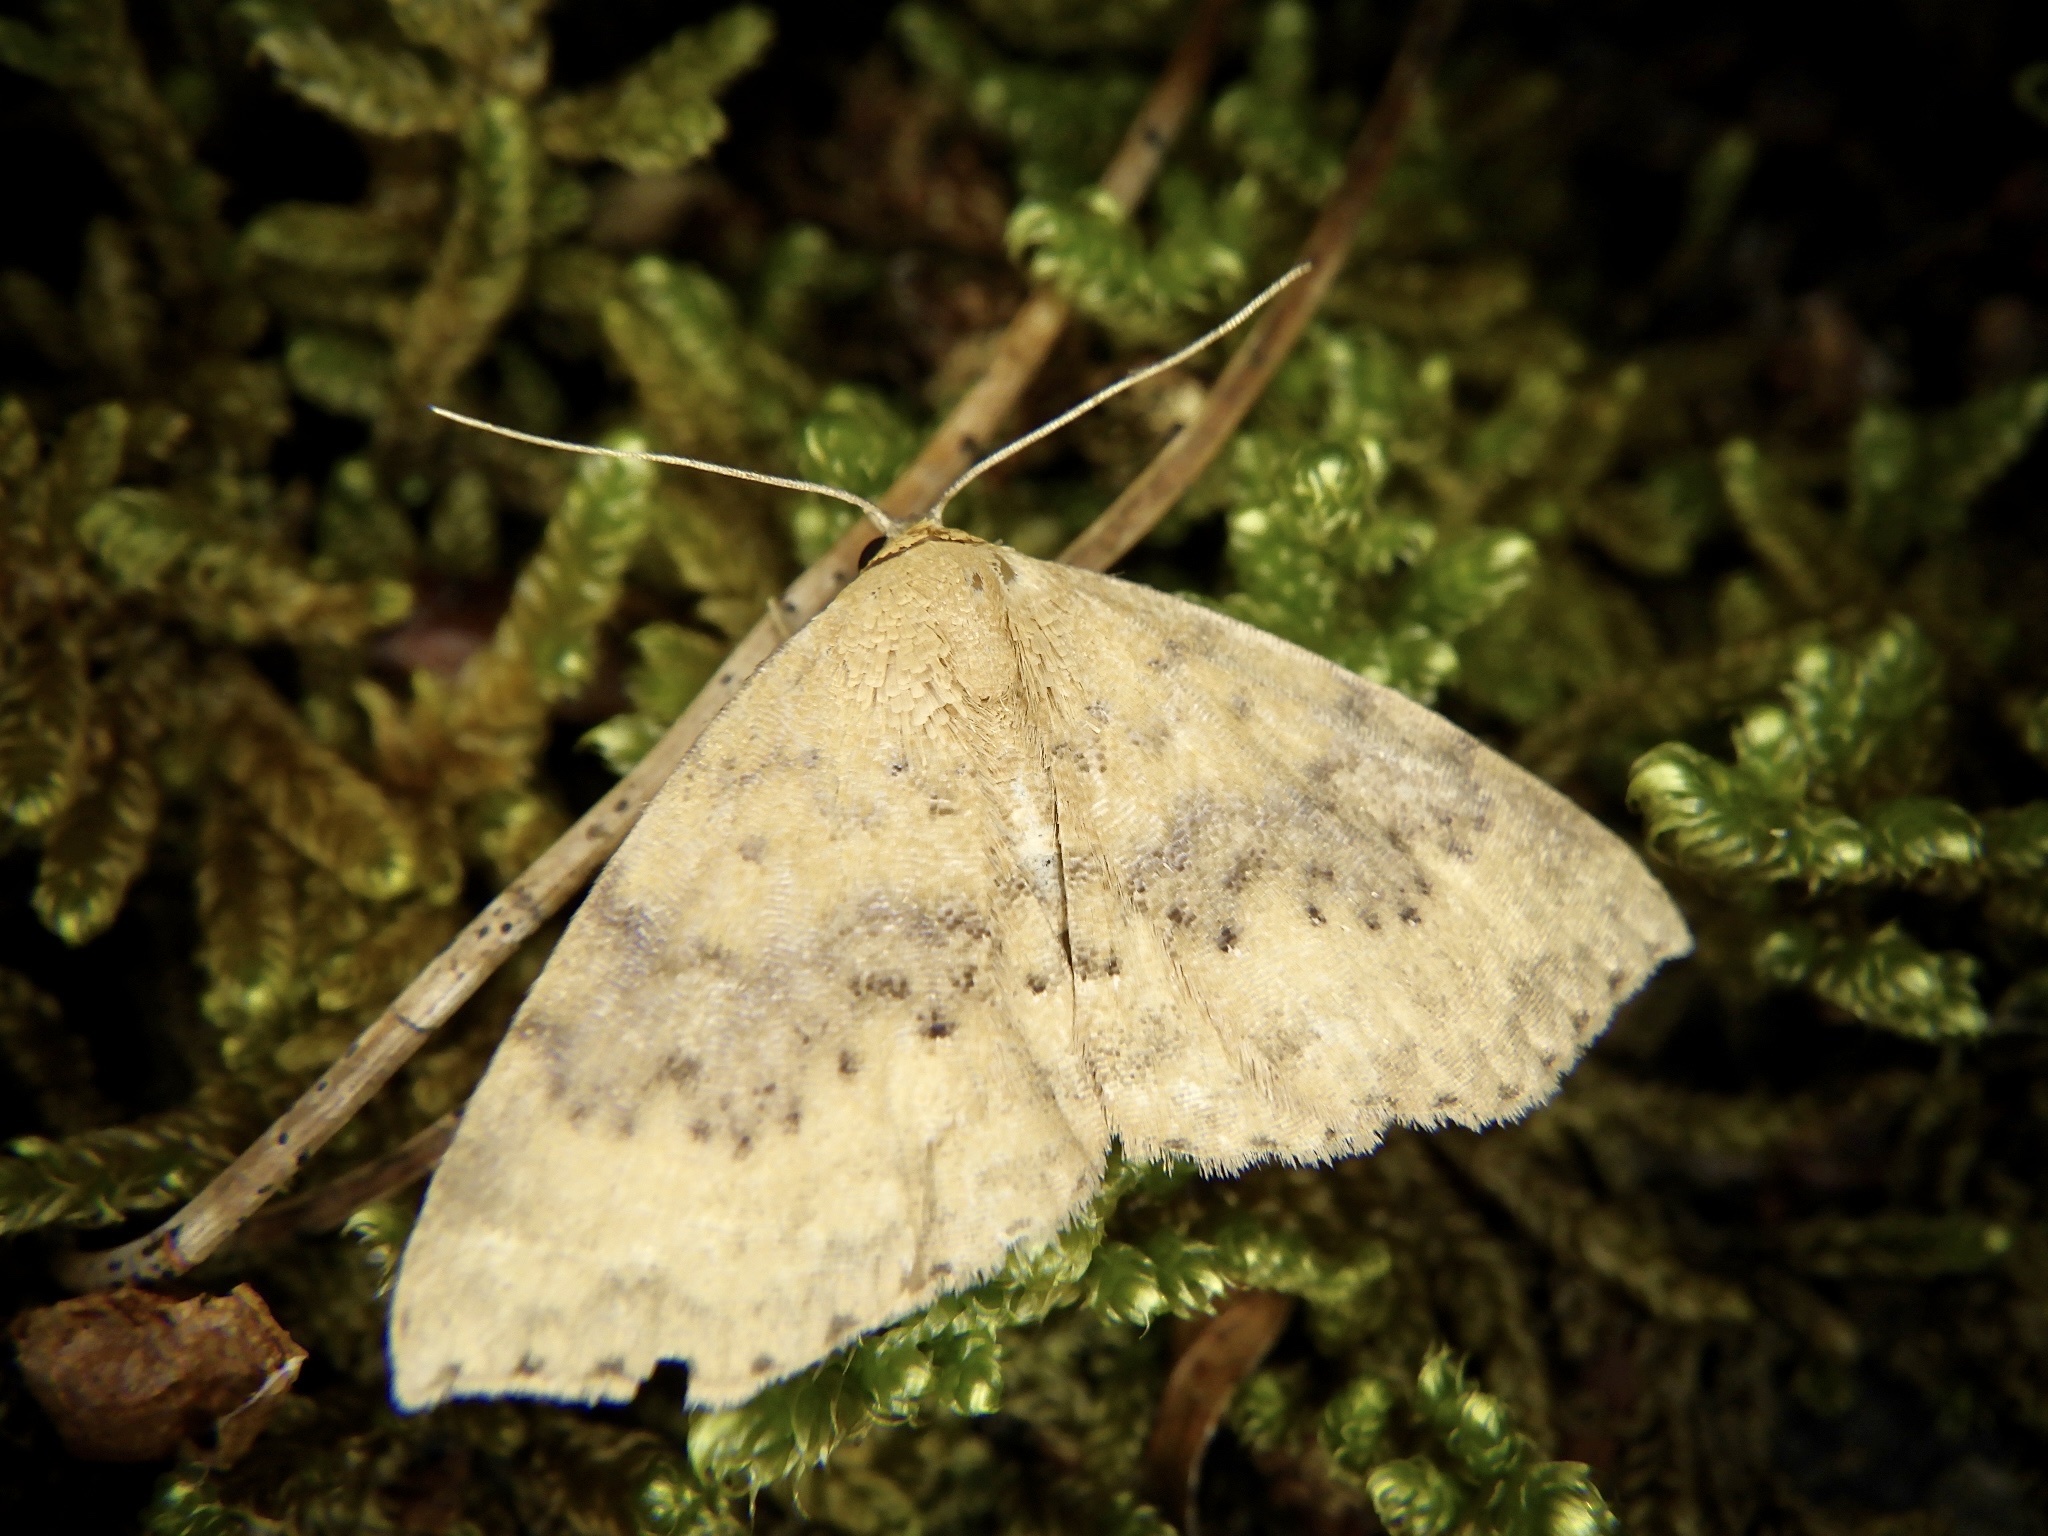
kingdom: Animalia
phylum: Arthropoda
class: Insecta
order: Lepidoptera
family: Noctuidae
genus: Oruza
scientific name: Oruza brunnea
